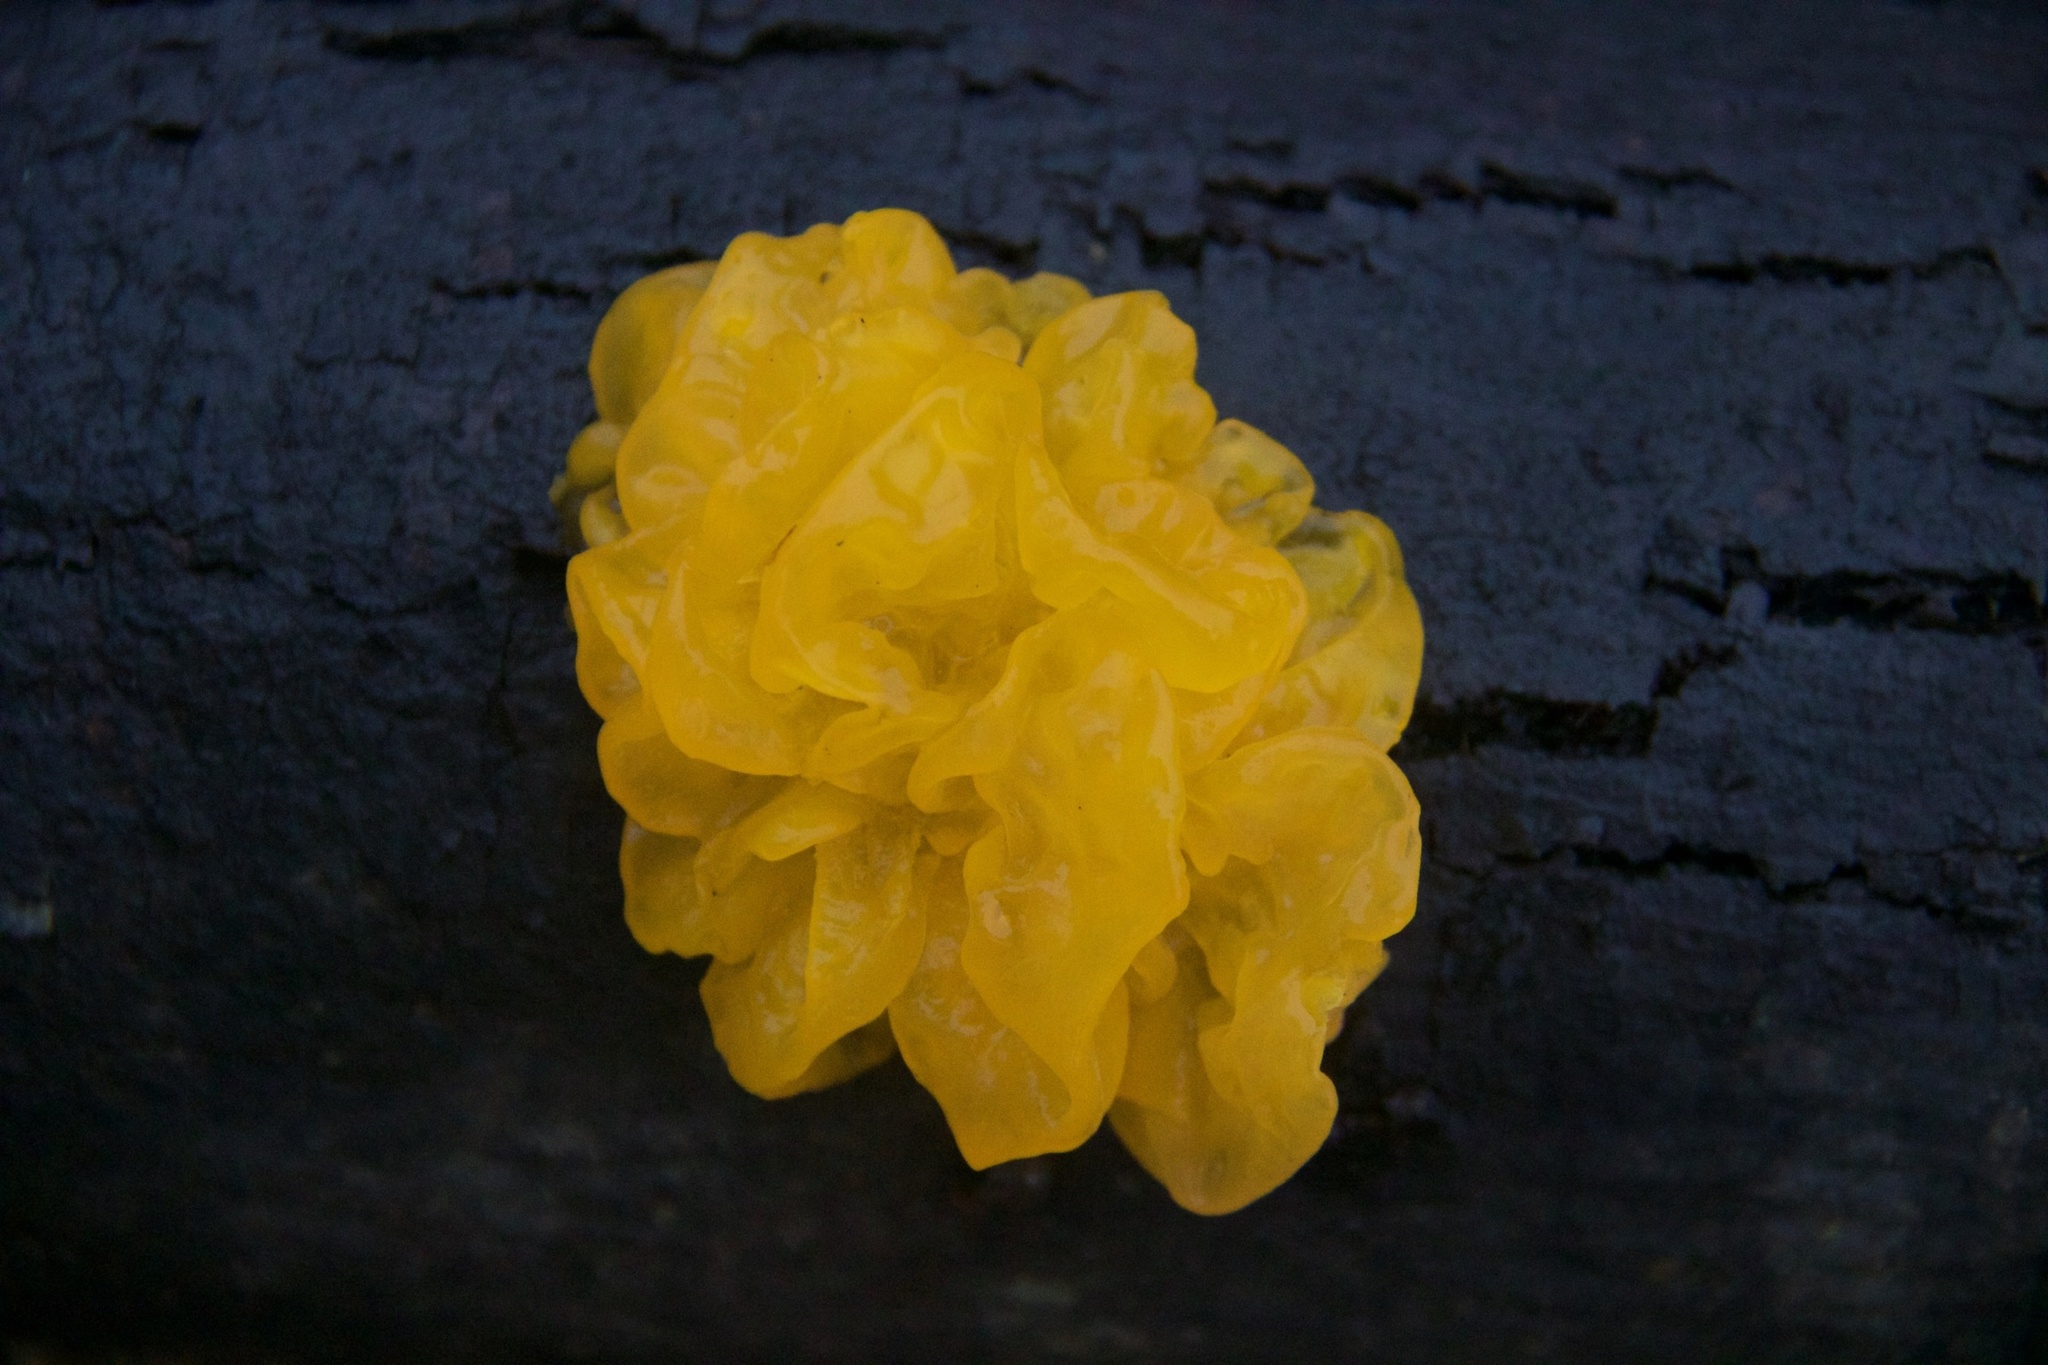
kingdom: Fungi
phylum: Basidiomycota
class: Tremellomycetes
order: Tremellales
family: Tremellaceae
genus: Tremella
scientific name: Tremella mesenterica
